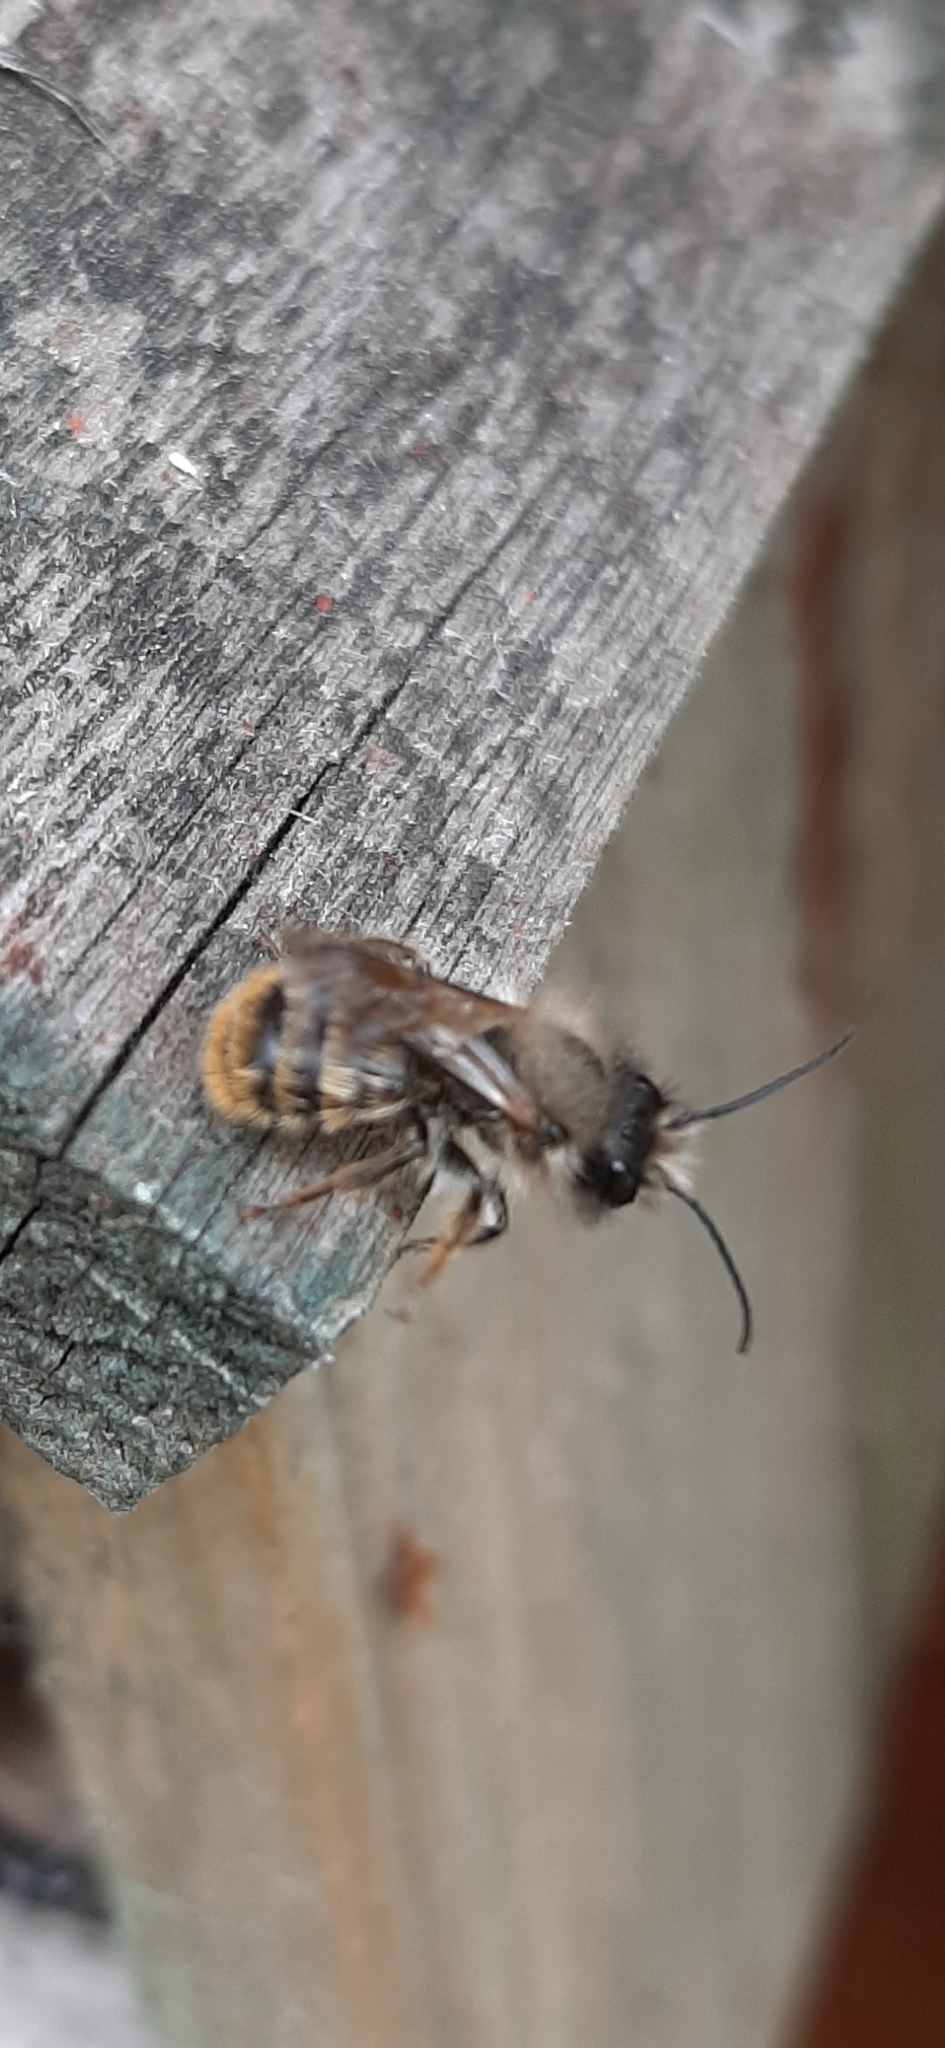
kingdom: Animalia
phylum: Arthropoda
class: Insecta
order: Hymenoptera
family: Megachilidae
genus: Osmia
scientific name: Osmia bicornis
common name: Red mason bee
